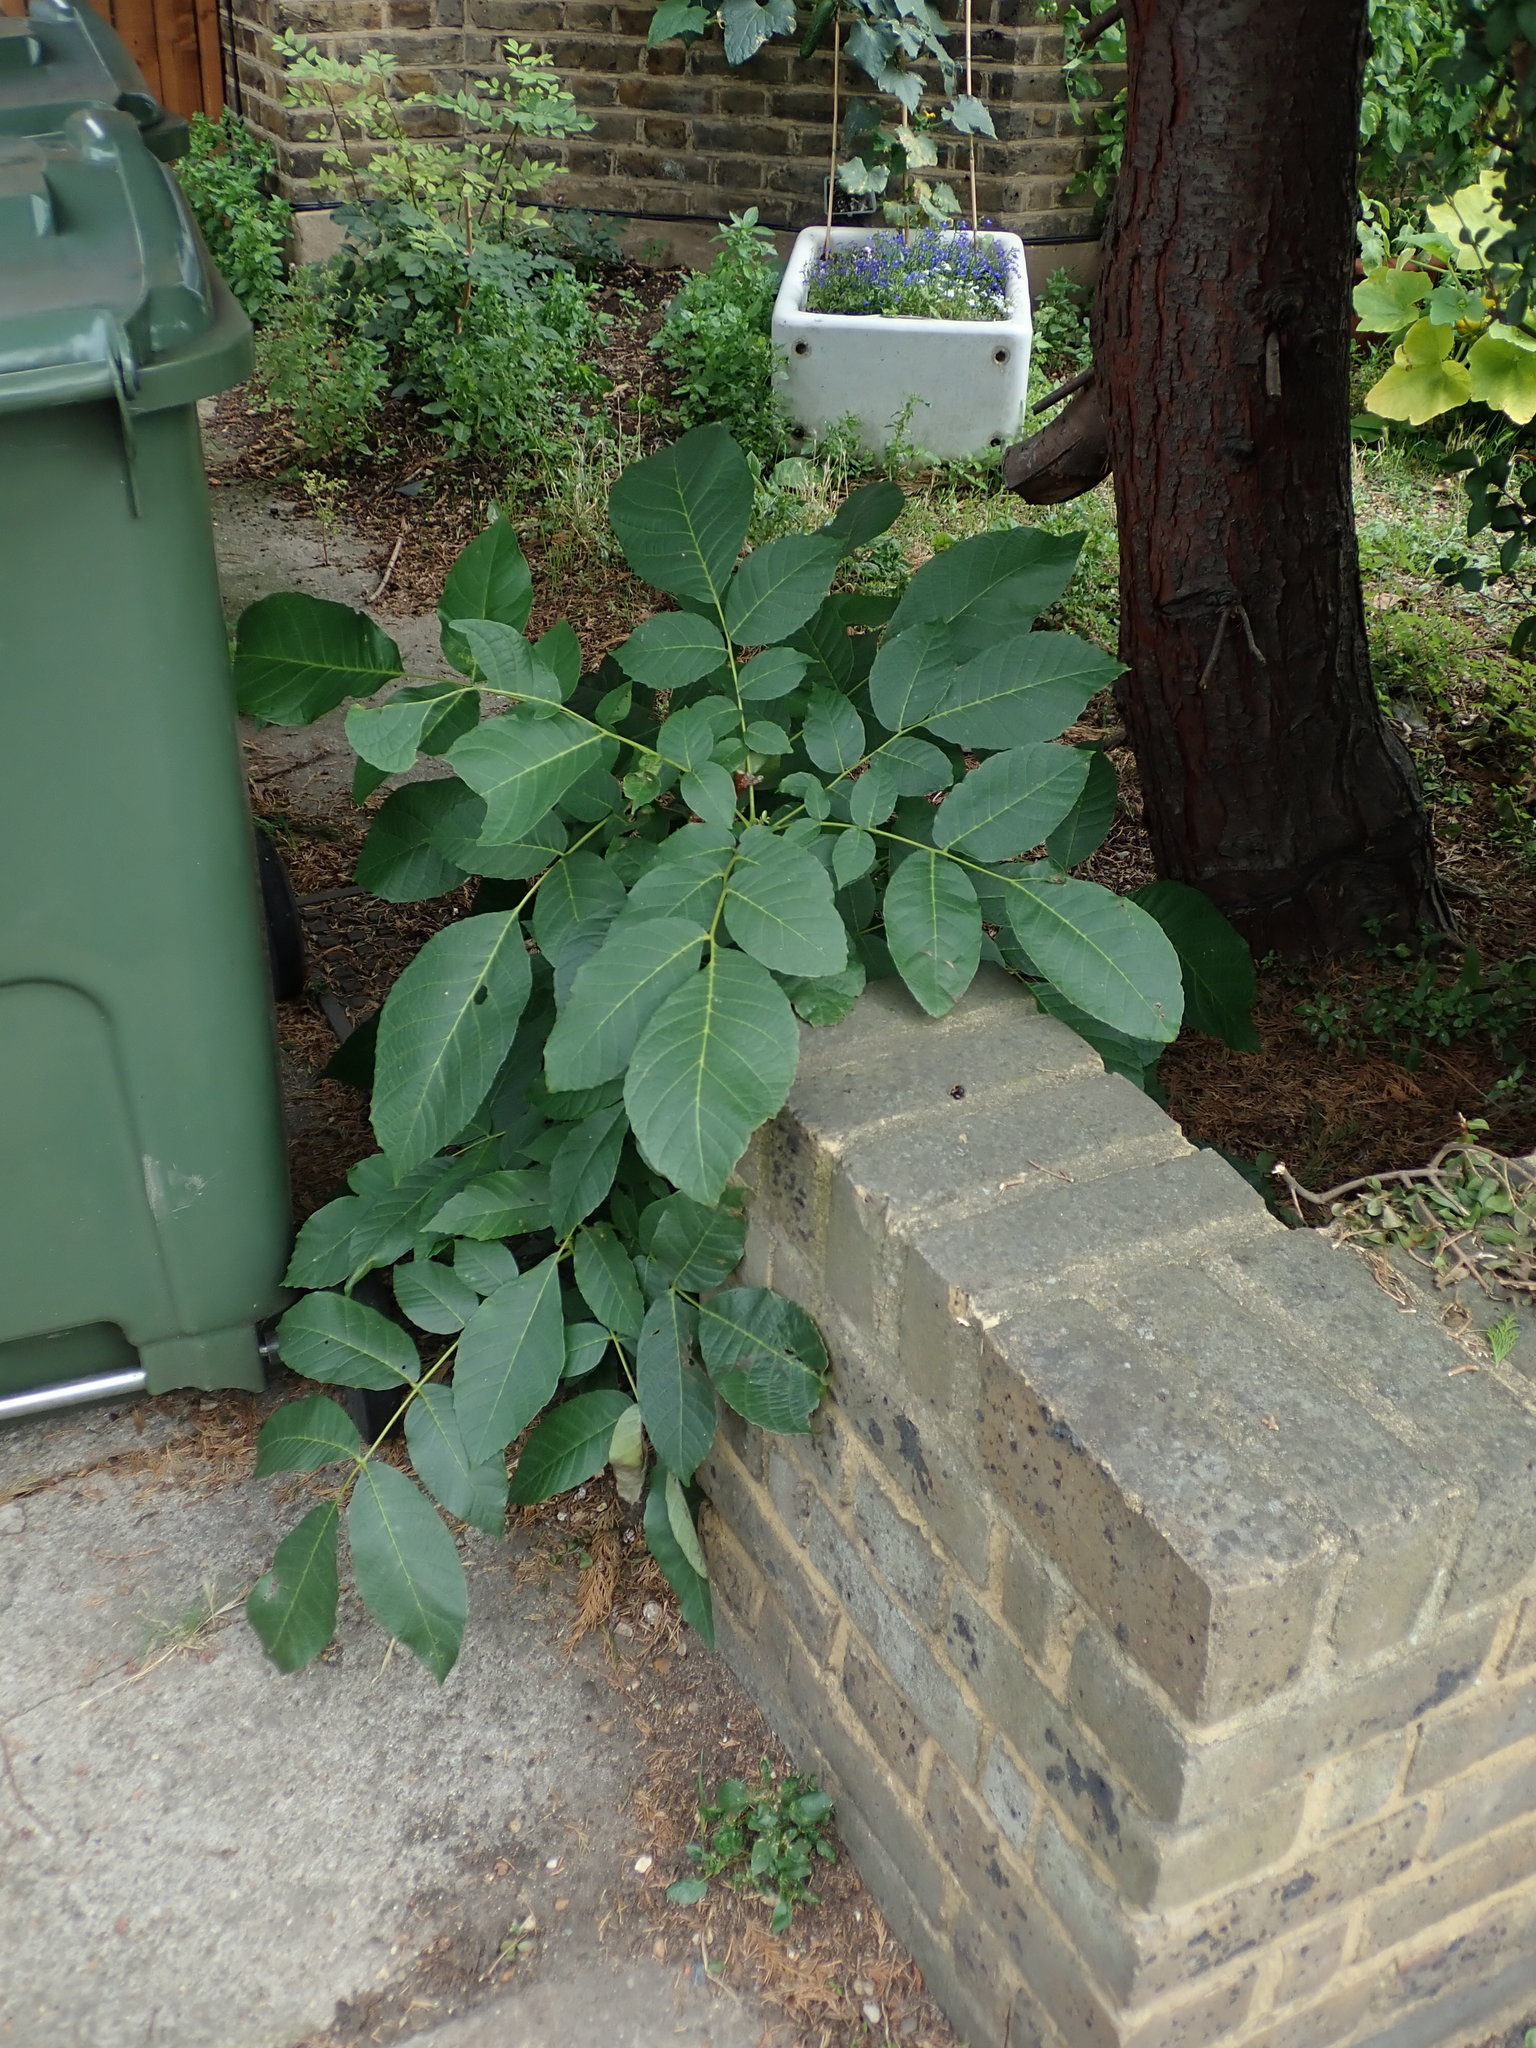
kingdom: Plantae
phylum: Tracheophyta
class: Magnoliopsida
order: Fagales
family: Juglandaceae
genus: Juglans
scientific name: Juglans regia
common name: Walnut
